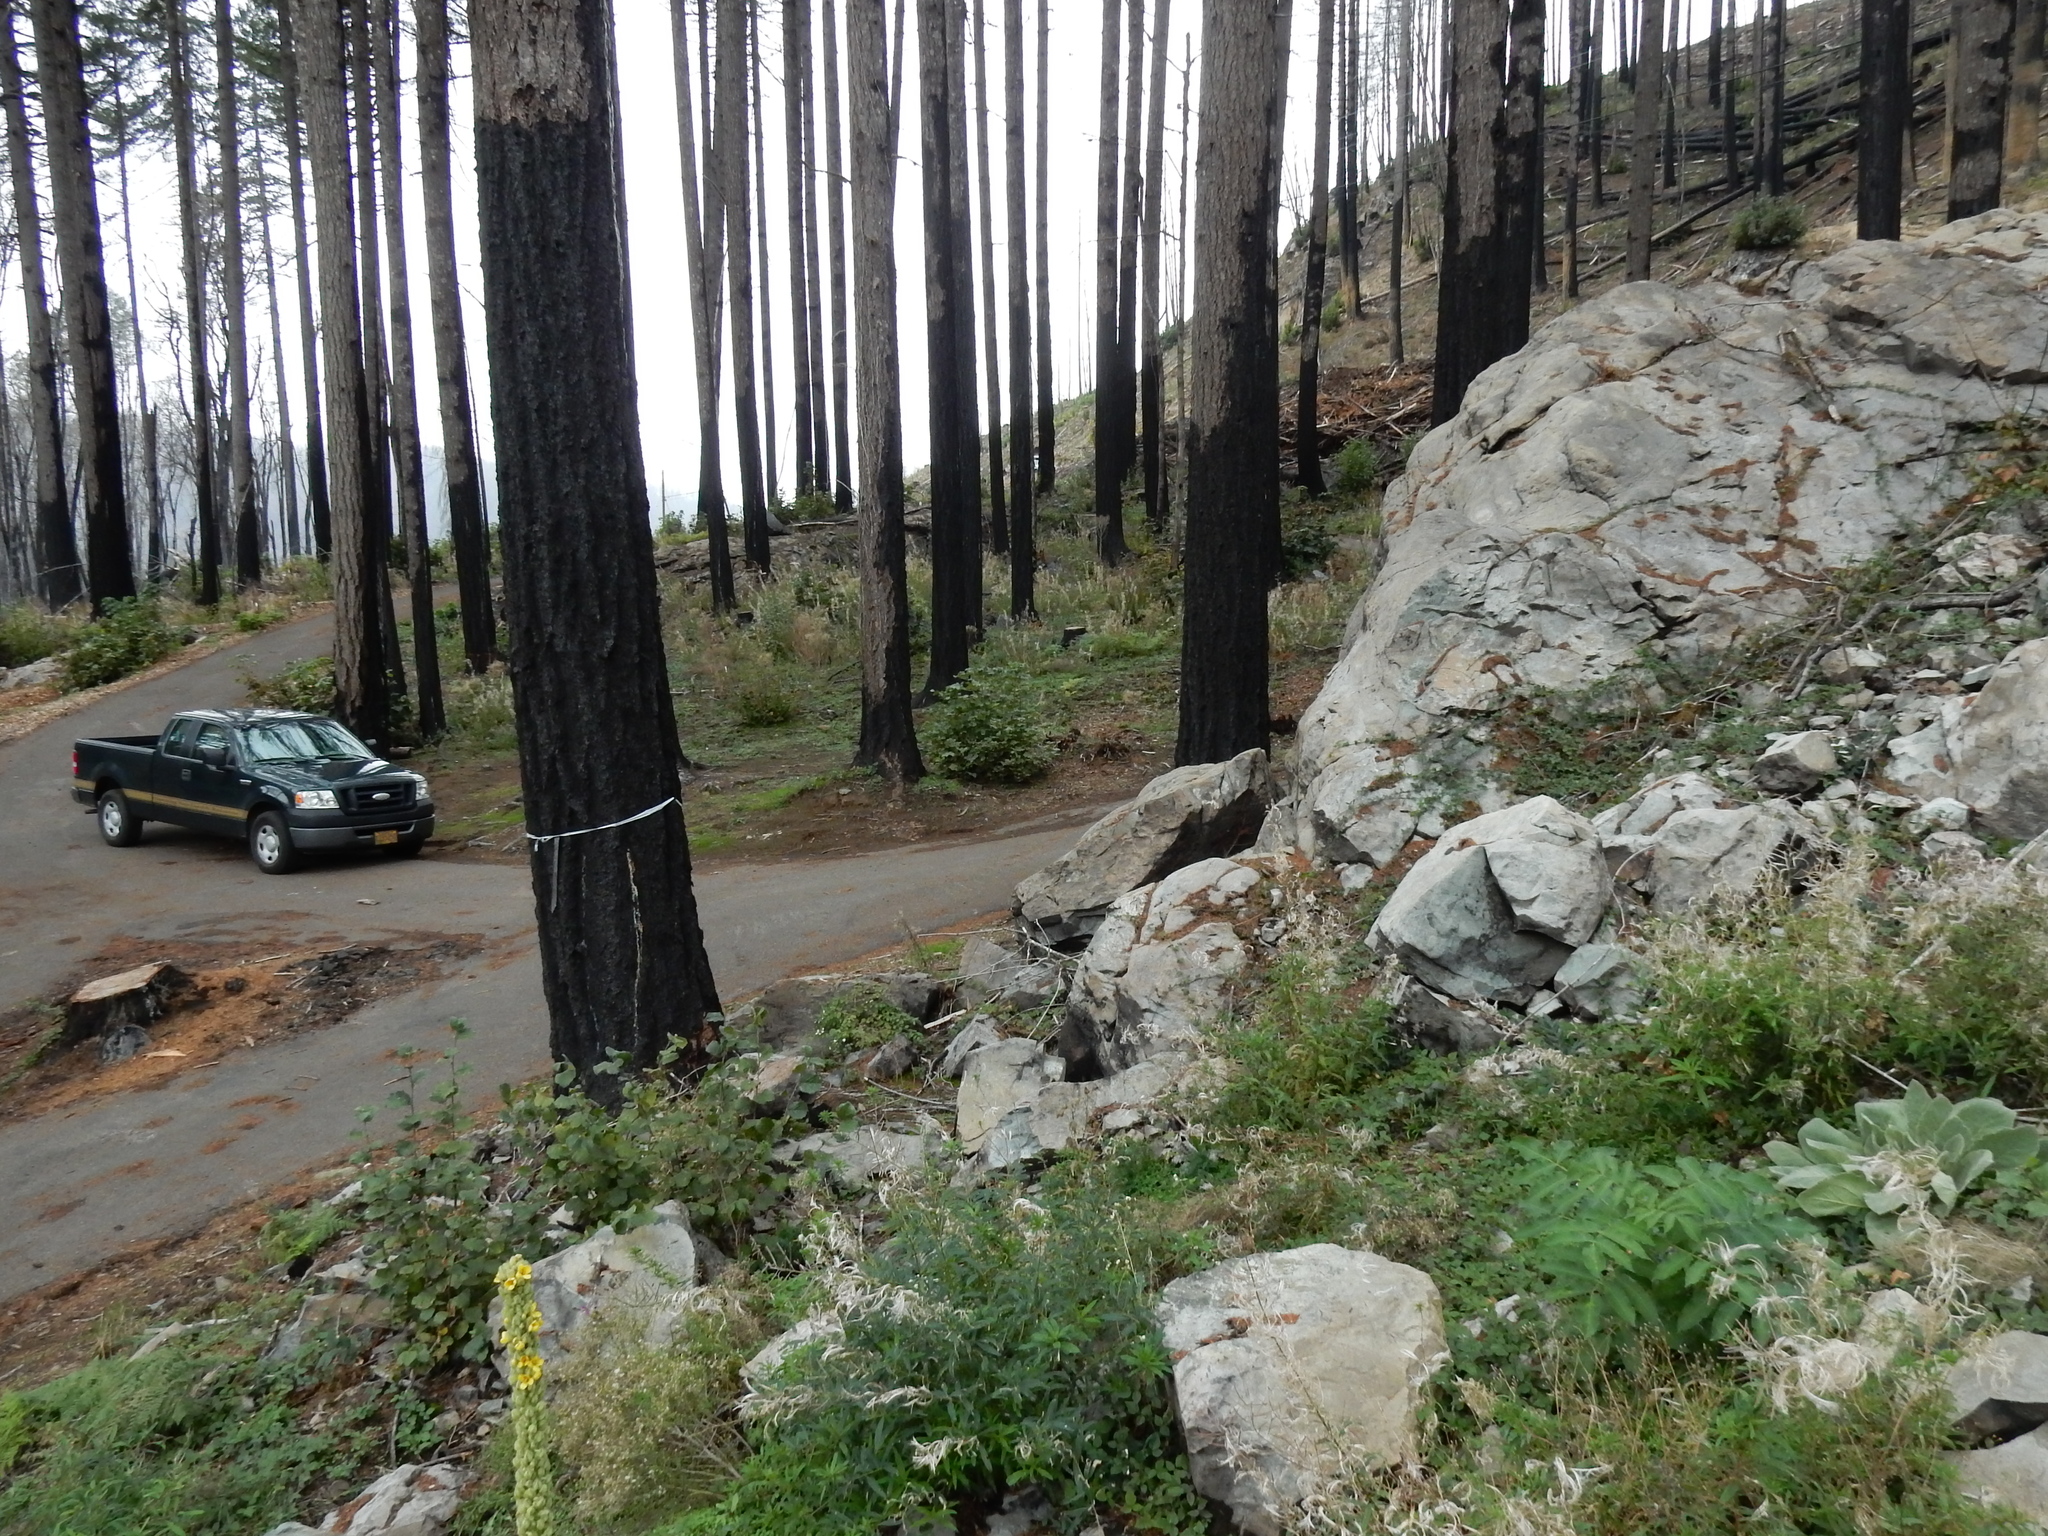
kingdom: Plantae
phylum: Tracheophyta
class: Magnoliopsida
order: Lamiales
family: Scrophulariaceae
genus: Verbascum
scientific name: Verbascum thapsus
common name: Common mullein
